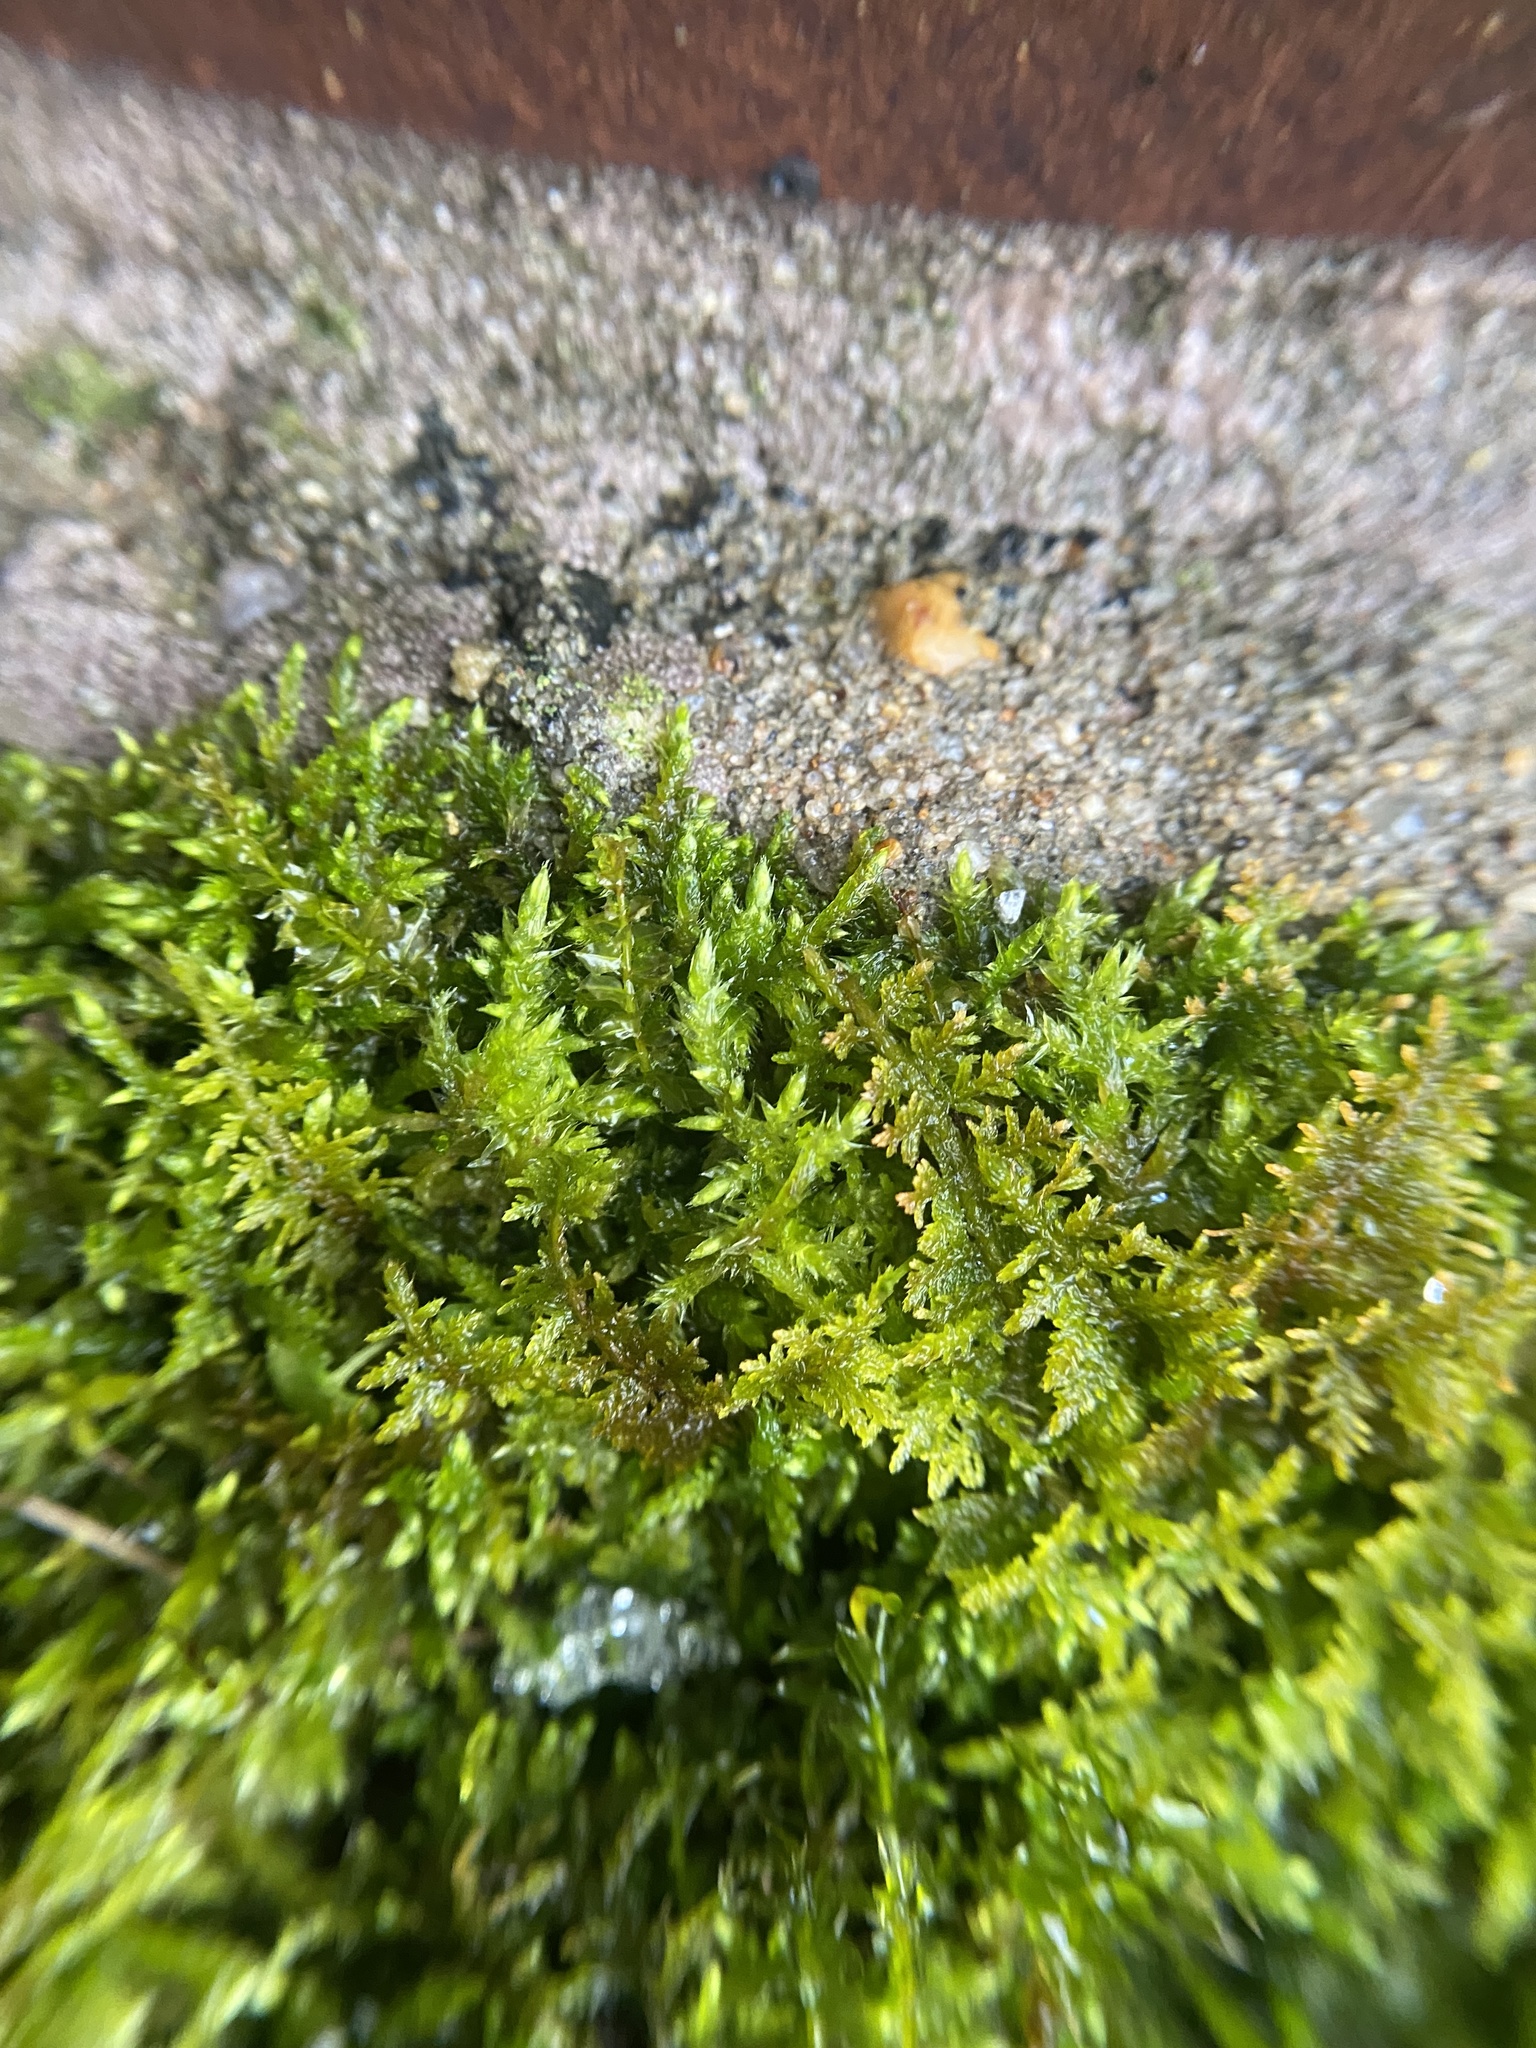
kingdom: Plantae
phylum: Bryophyta
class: Bryopsida
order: Hypnales
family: Thuidiaceae
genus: Thuidium
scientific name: Thuidium delicatulum
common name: Delicate fern moss
